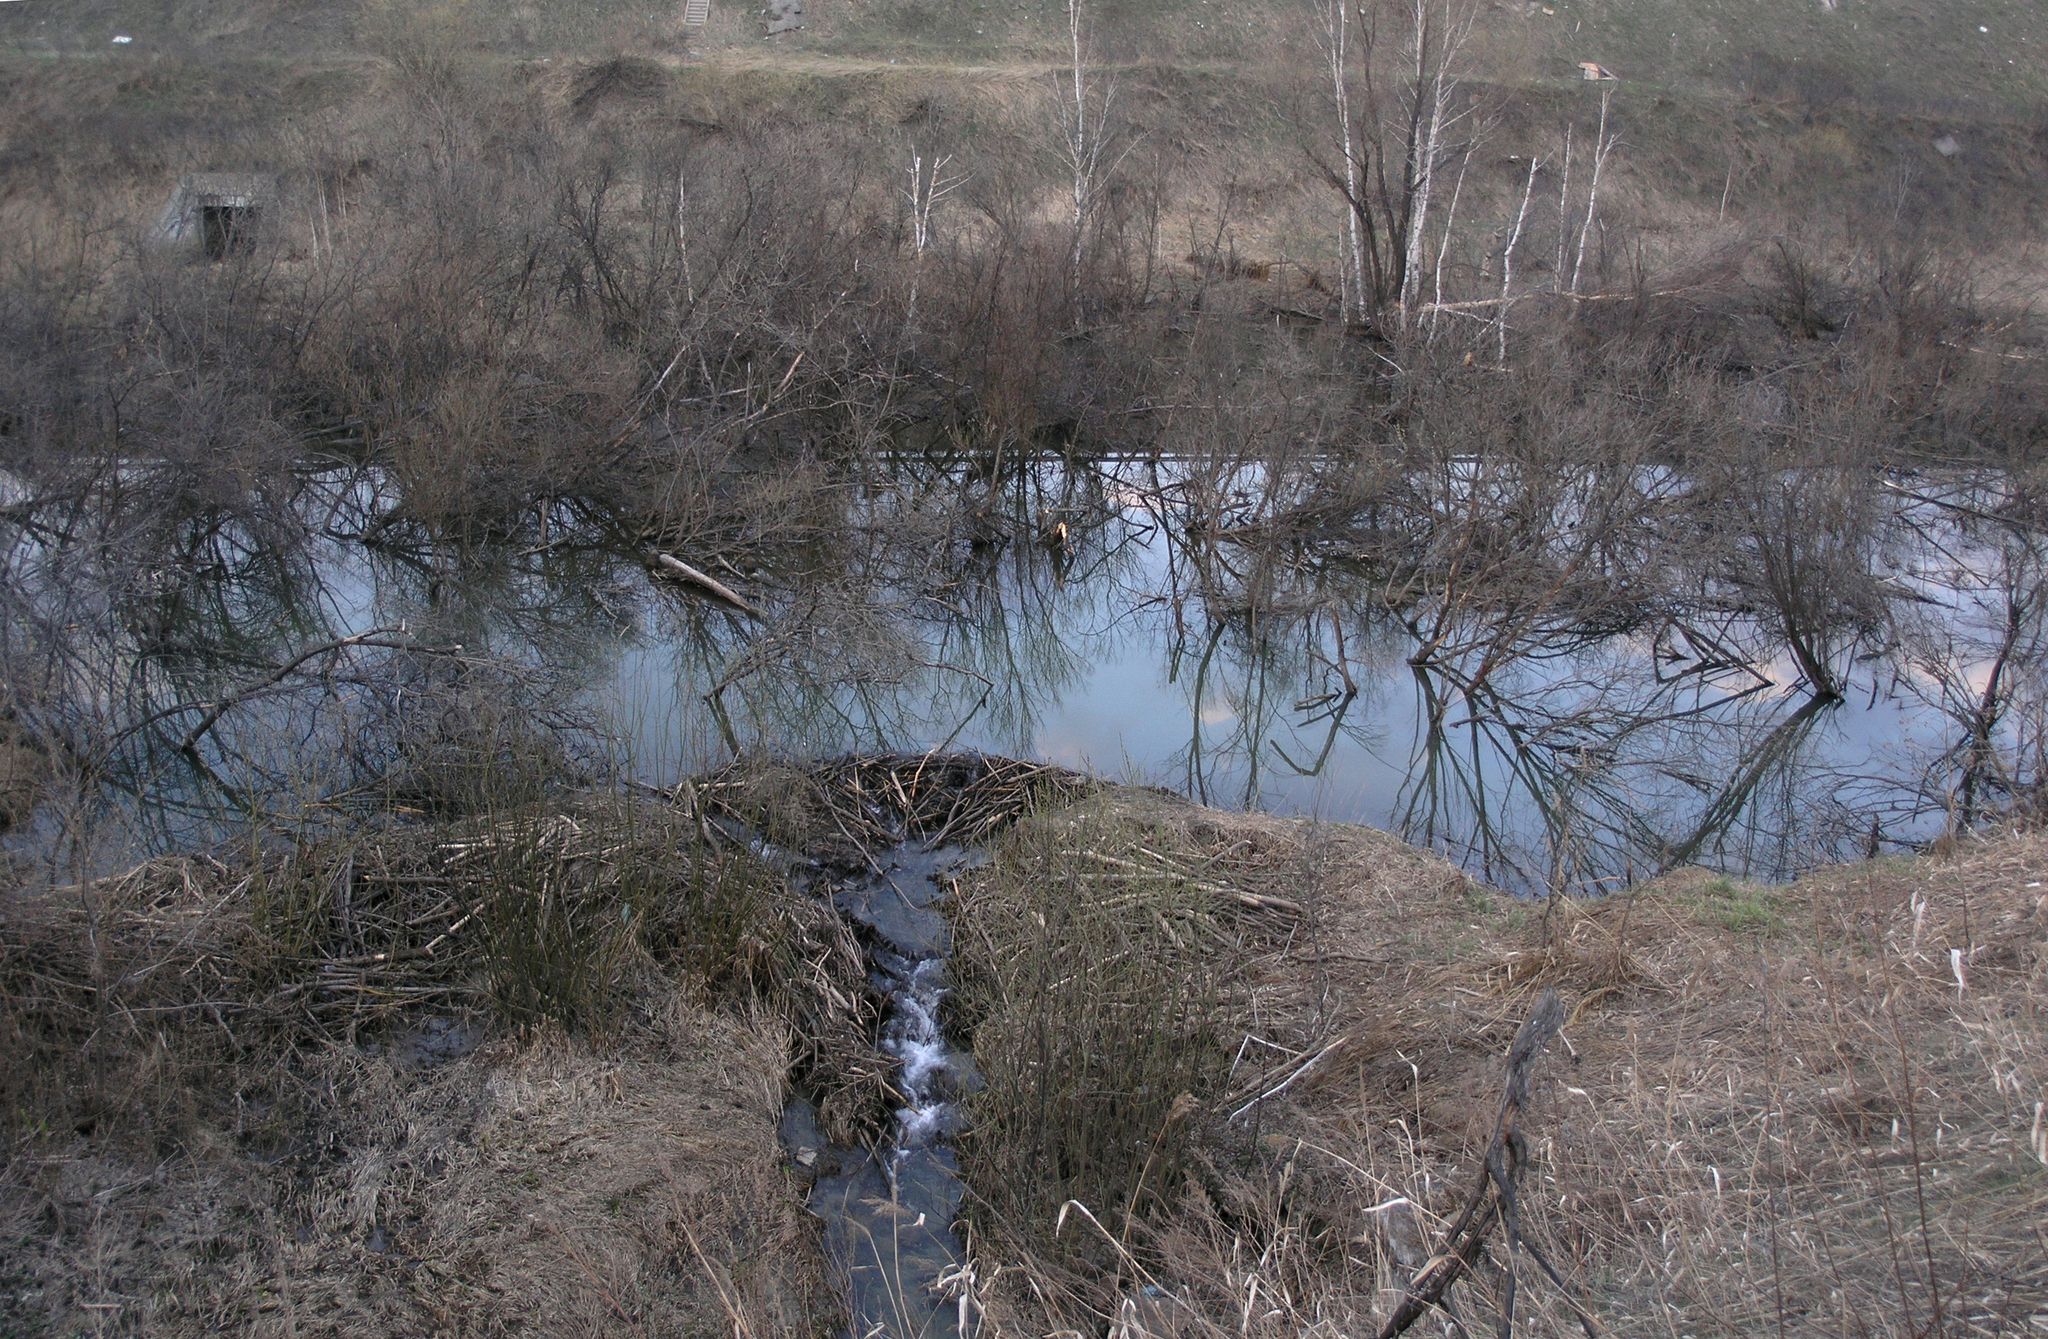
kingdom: Animalia
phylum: Chordata
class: Mammalia
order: Rodentia
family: Castoridae
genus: Castor
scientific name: Castor fiber
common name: Eurasian beaver
